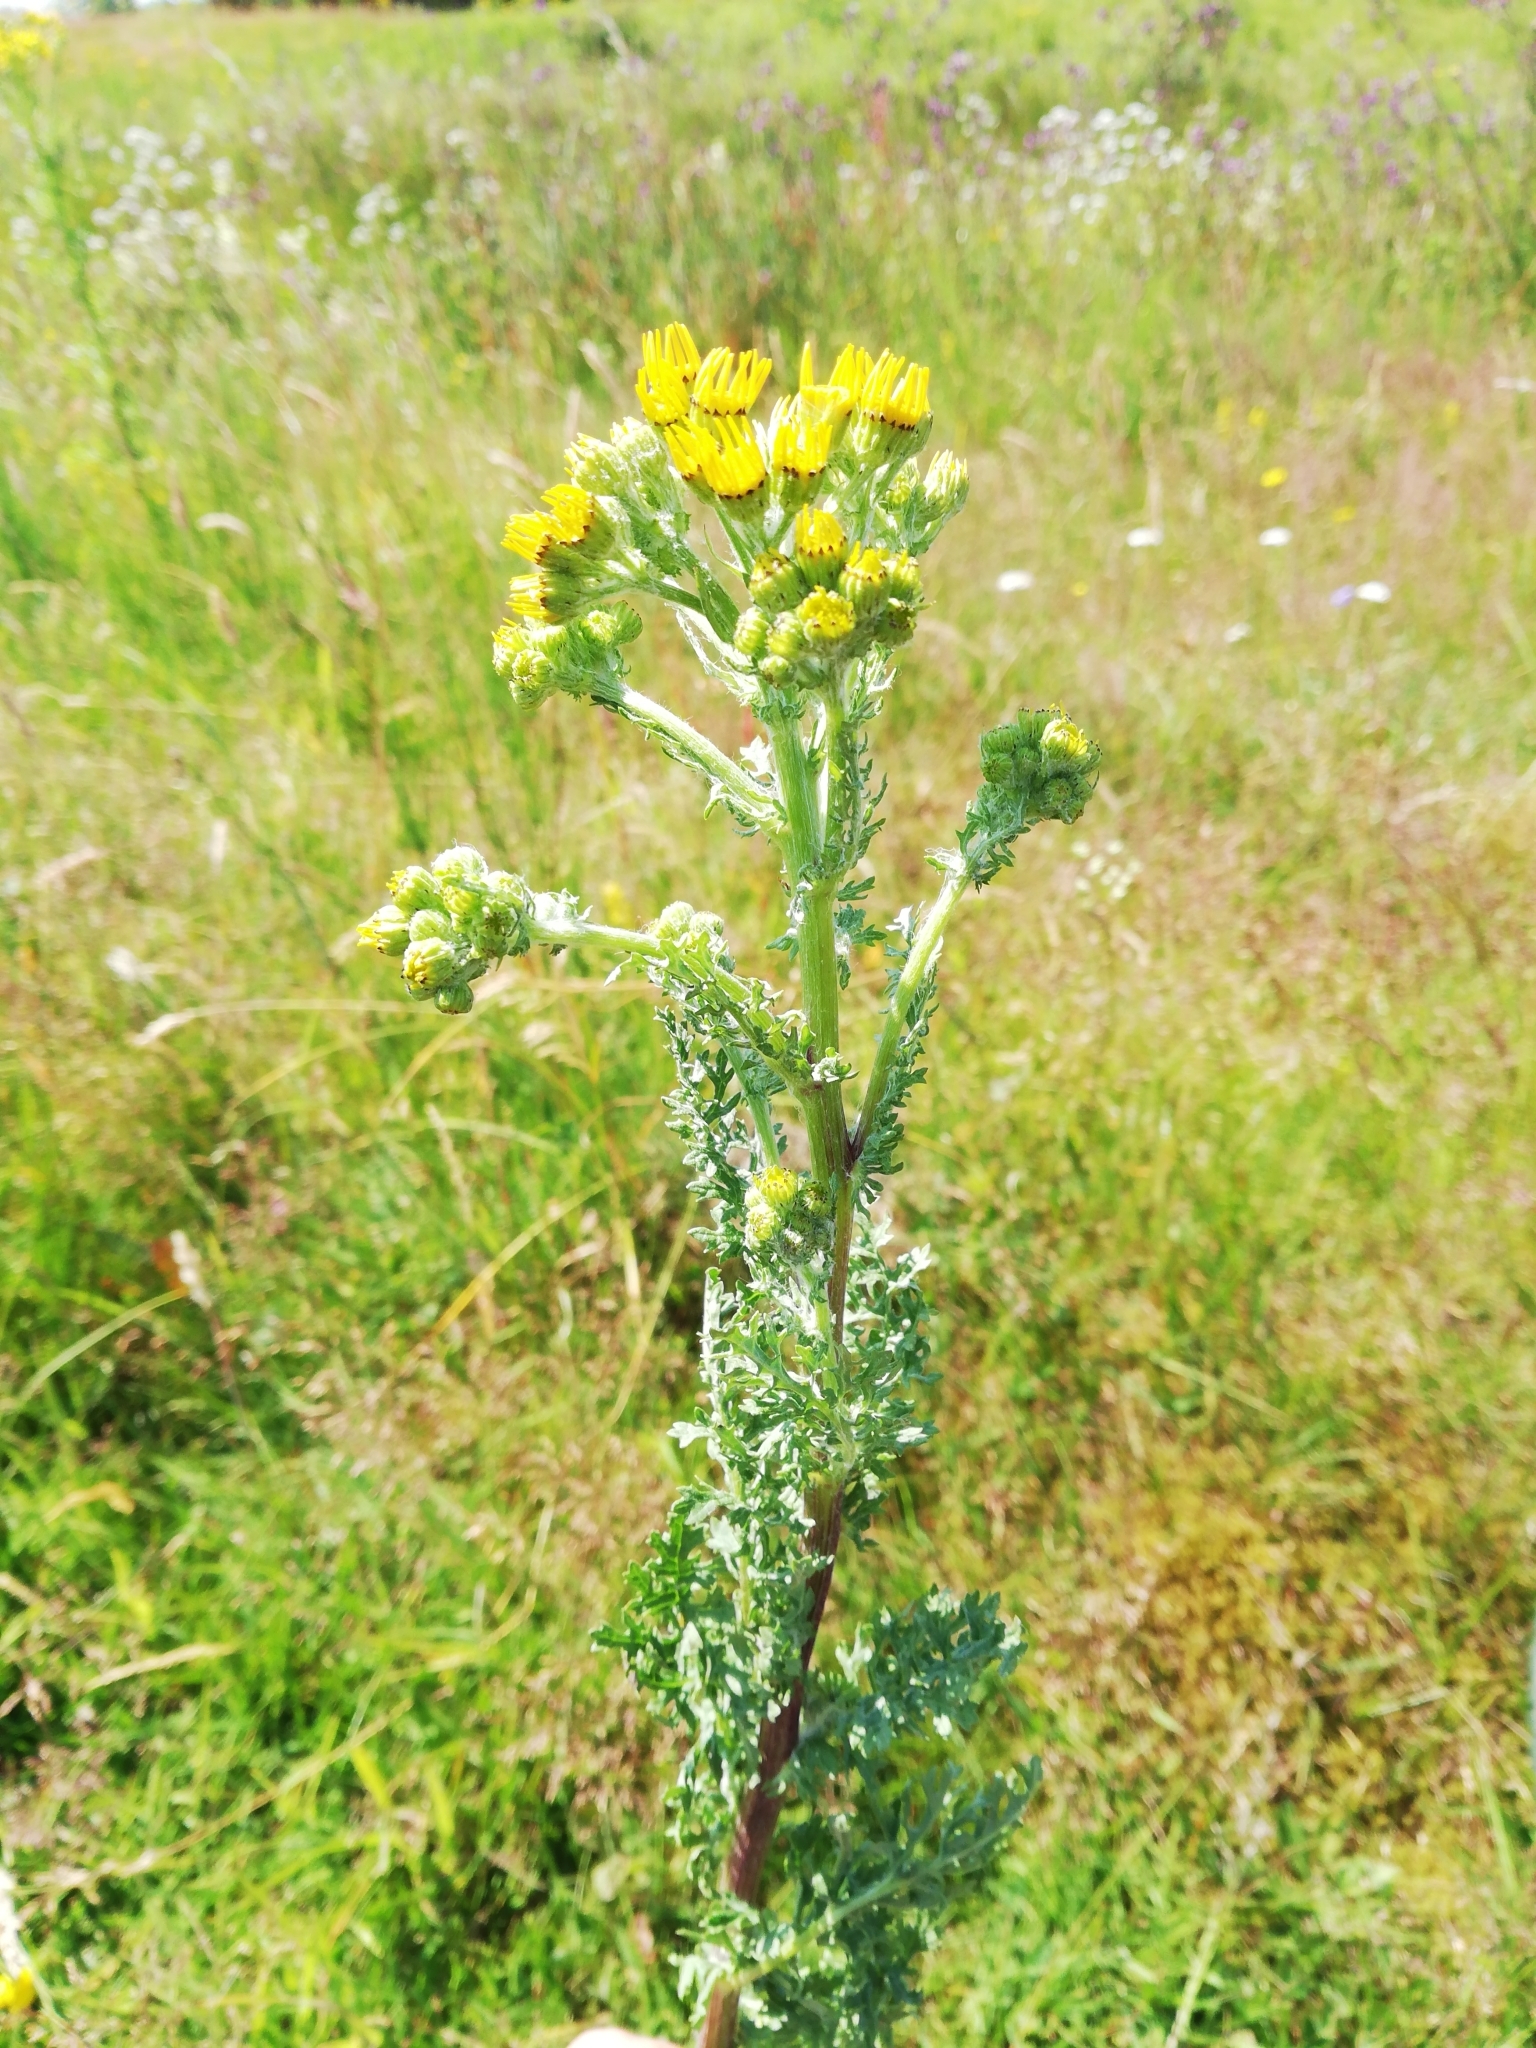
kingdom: Plantae
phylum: Tracheophyta
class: Magnoliopsida
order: Asterales
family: Asteraceae
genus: Jacobaea
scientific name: Jacobaea vulgaris
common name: Stinking willie
